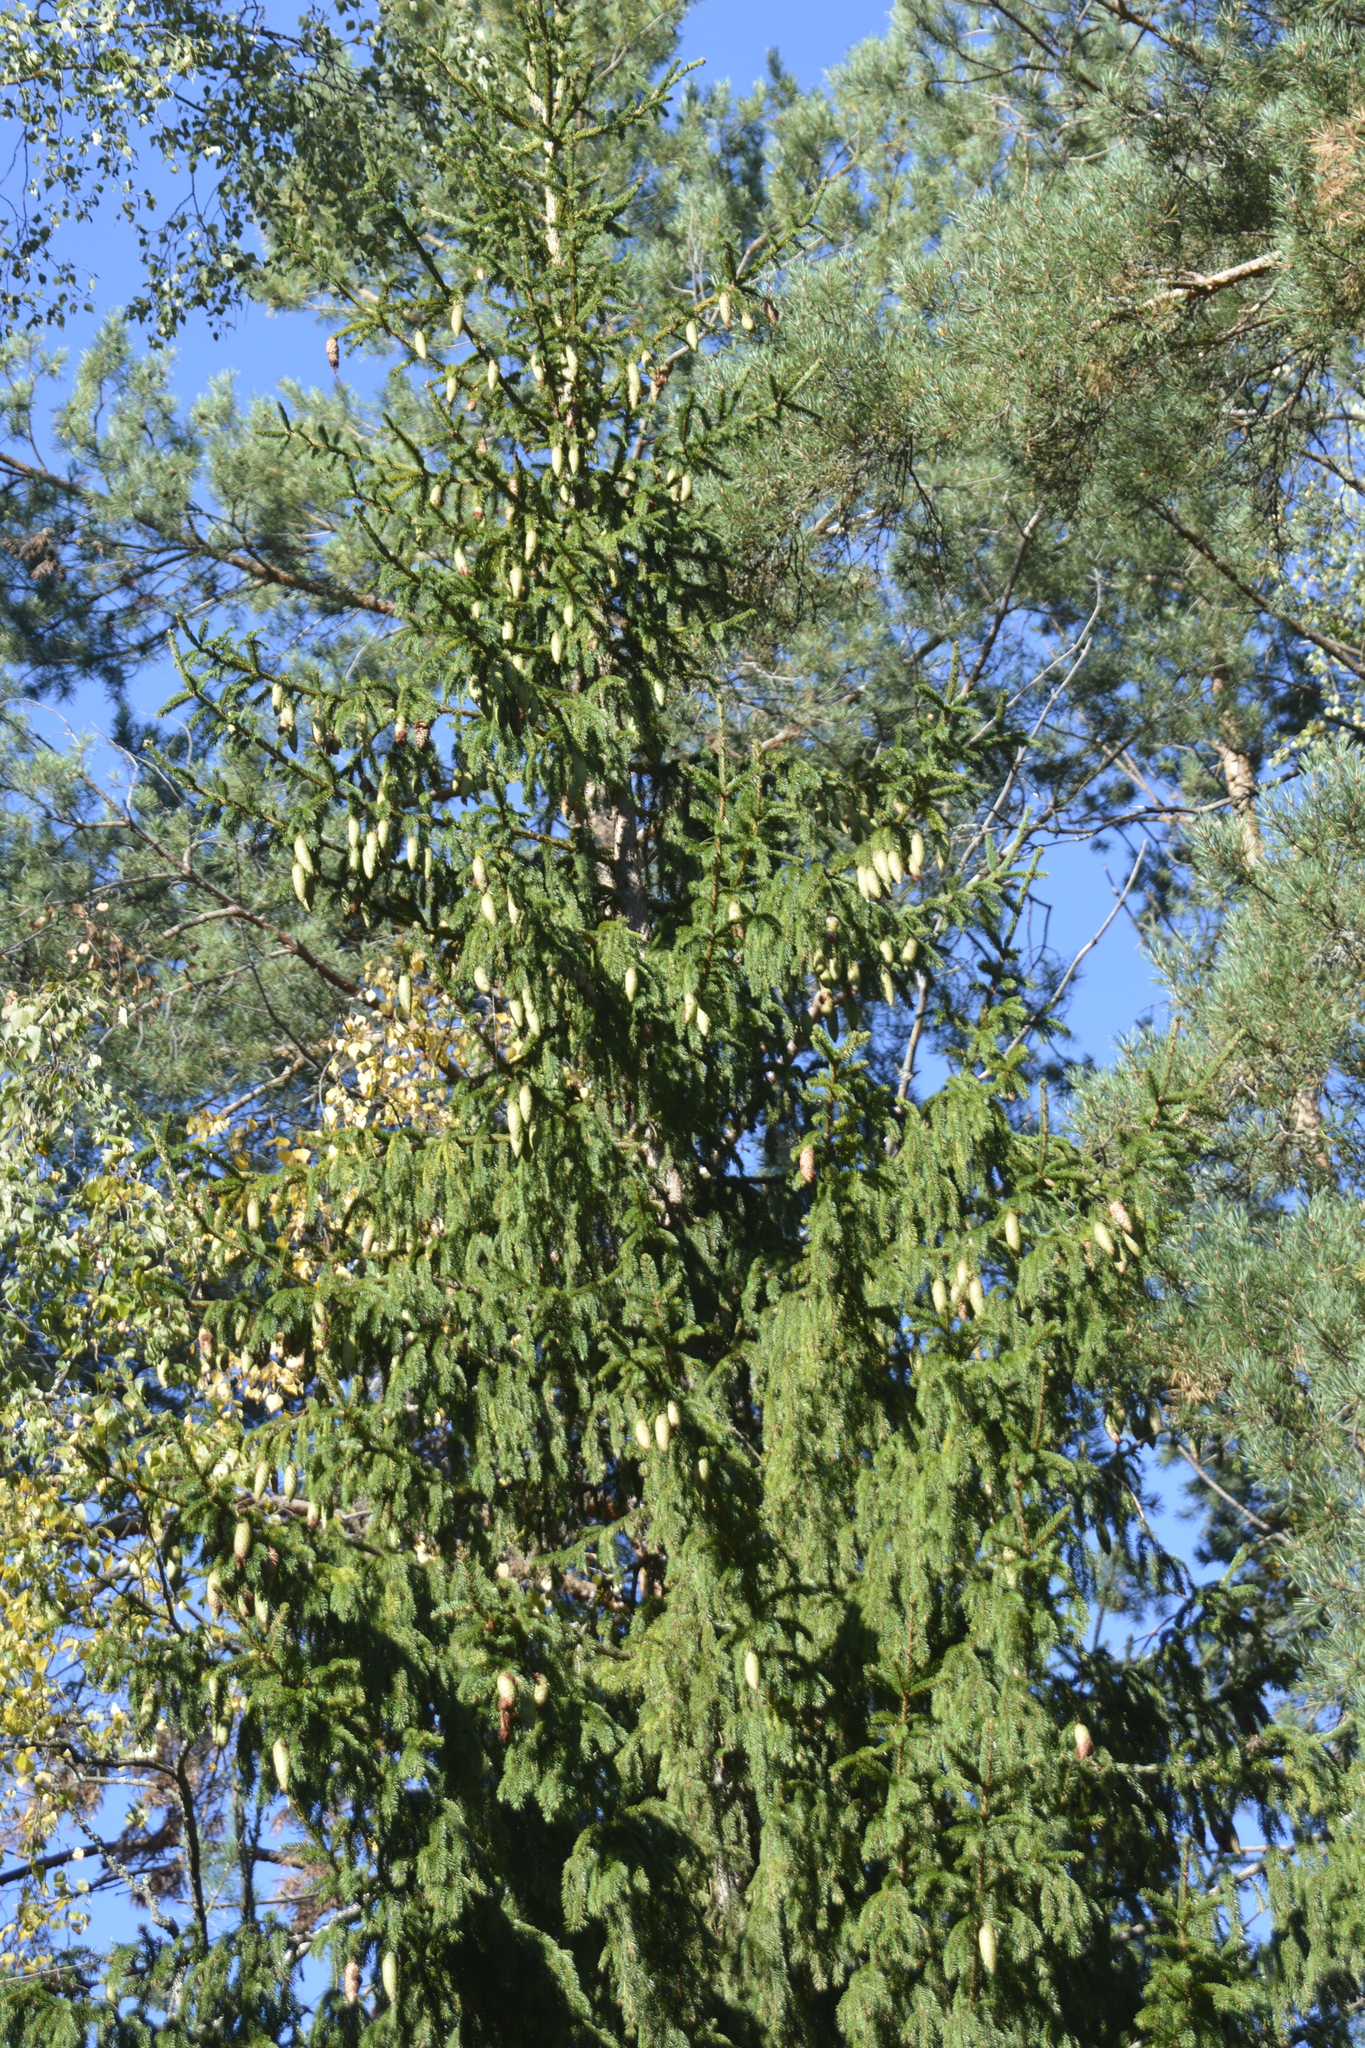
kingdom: Plantae
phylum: Tracheophyta
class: Pinopsida
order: Pinales
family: Pinaceae
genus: Picea
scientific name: Picea abies
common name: Norway spruce
